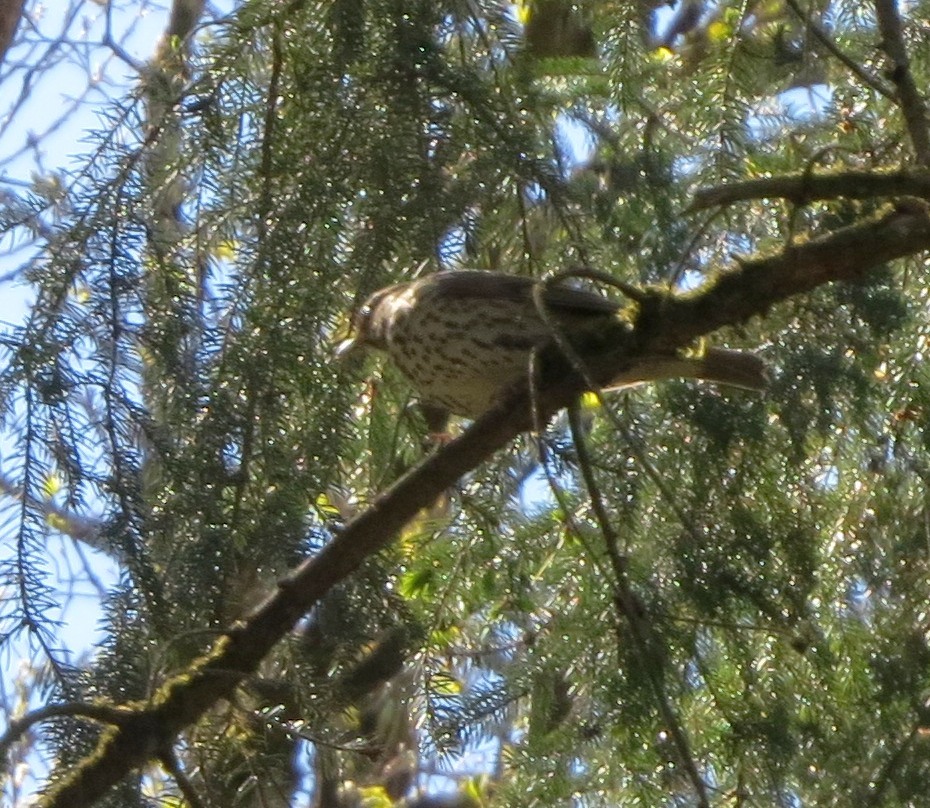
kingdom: Animalia
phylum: Chordata
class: Aves
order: Passeriformes
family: Turdidae
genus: Turdus
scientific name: Turdus philomelos
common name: Song thrush
